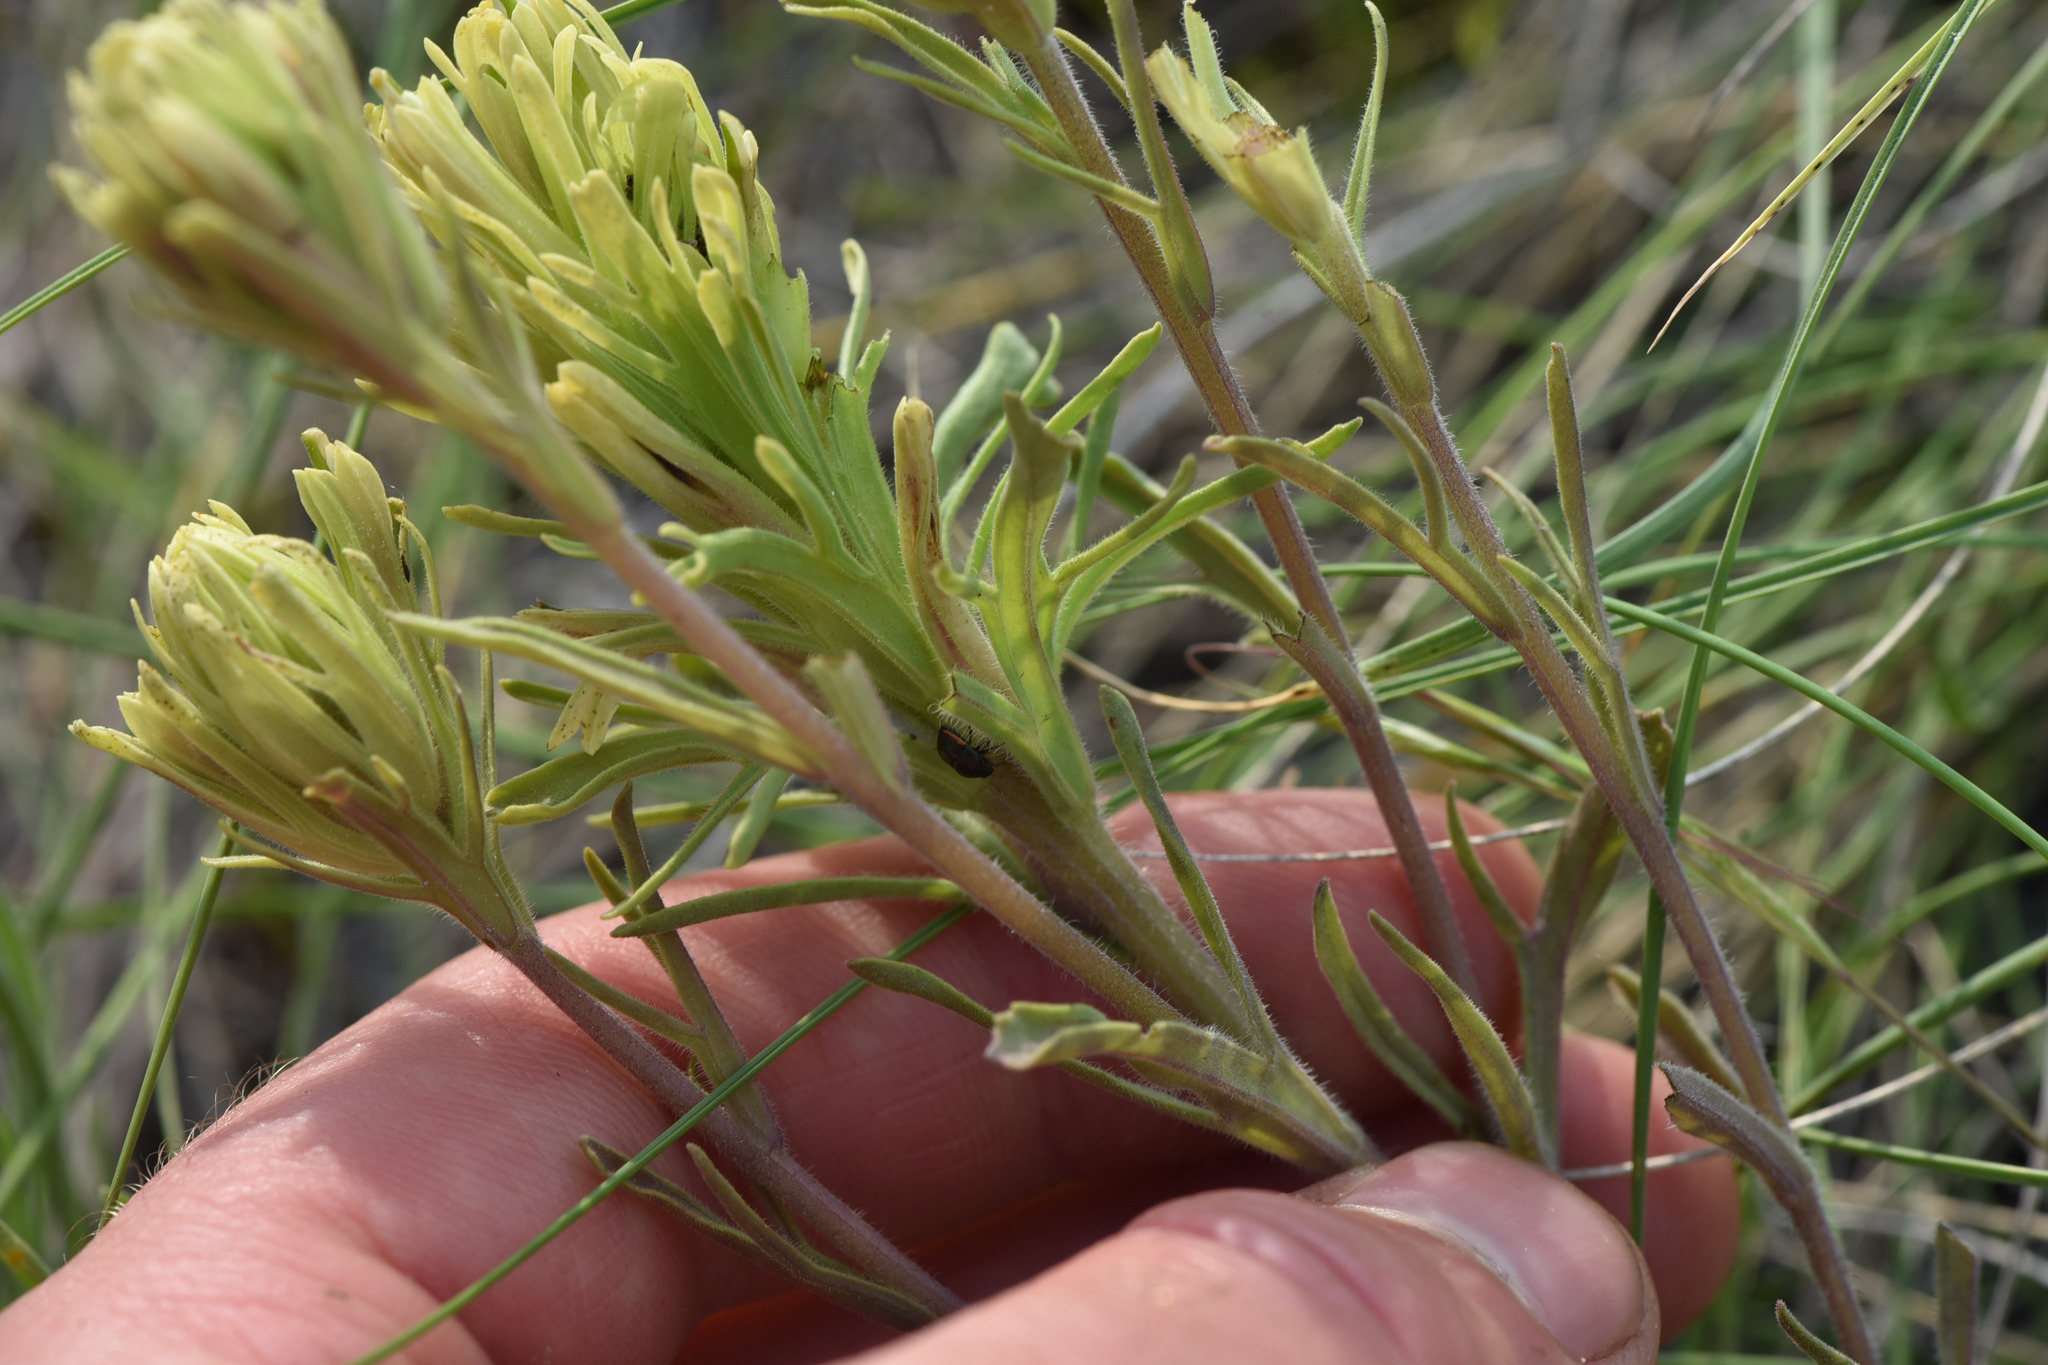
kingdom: Plantae
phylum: Tracheophyta
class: Magnoliopsida
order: Lamiales
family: Orobanchaceae
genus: Castilleja
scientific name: Castilleja thompsonii
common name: Thompson's paintbrush
